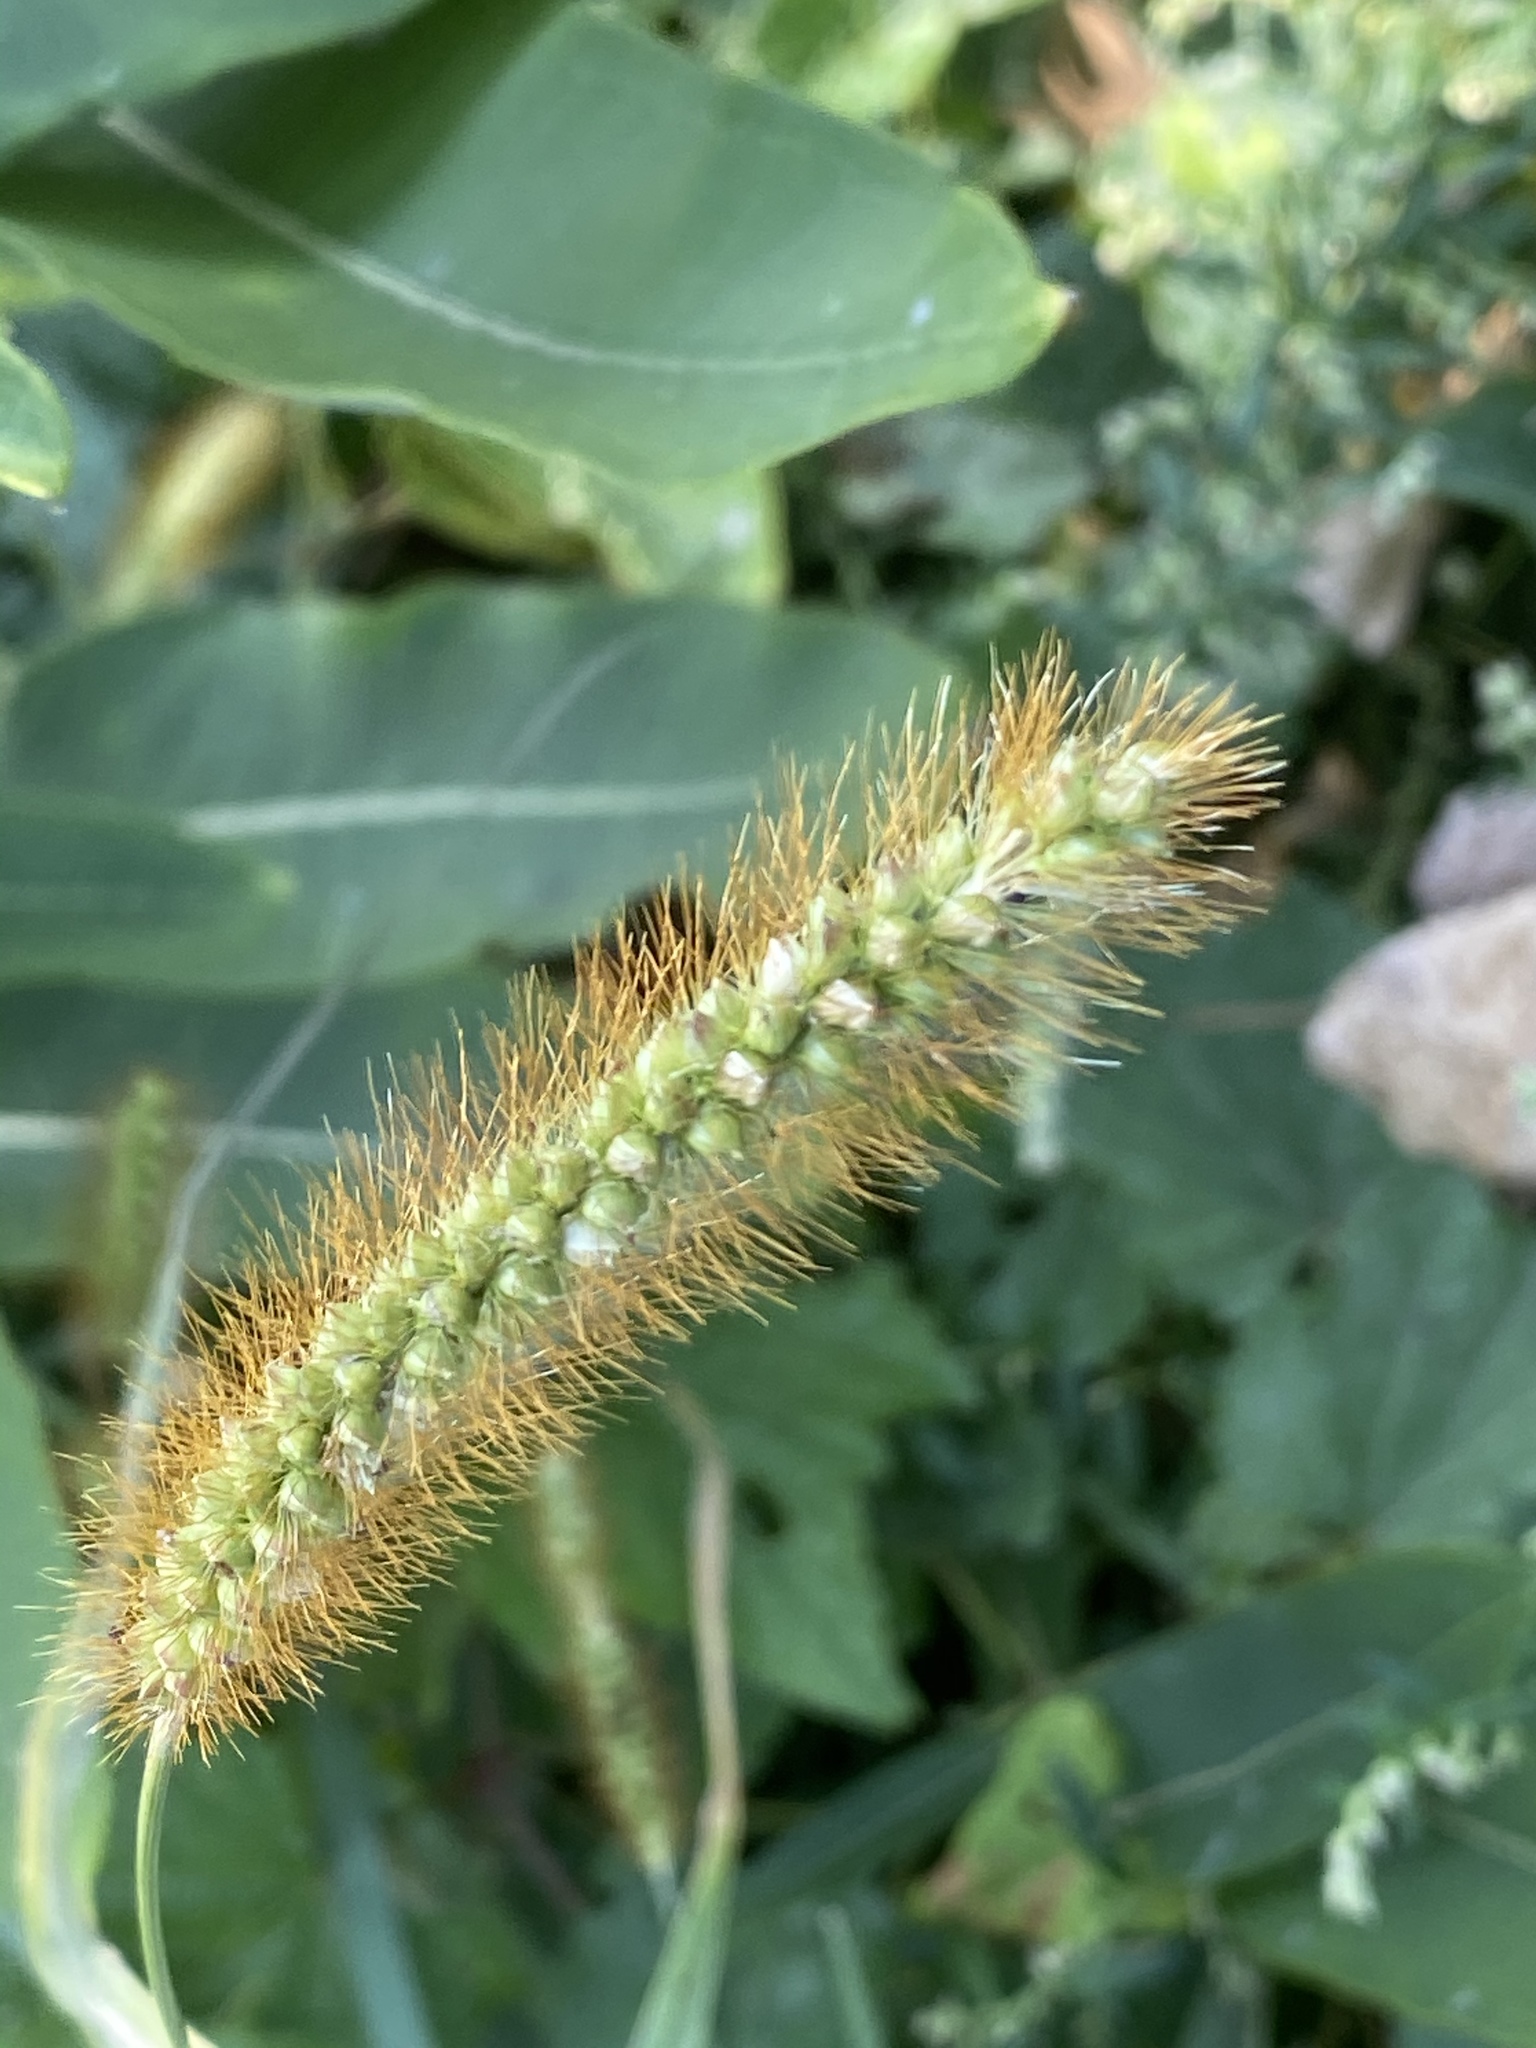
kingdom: Plantae
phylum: Tracheophyta
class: Liliopsida
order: Poales
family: Poaceae
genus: Setaria
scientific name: Setaria pumila
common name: Yellow bristle-grass
